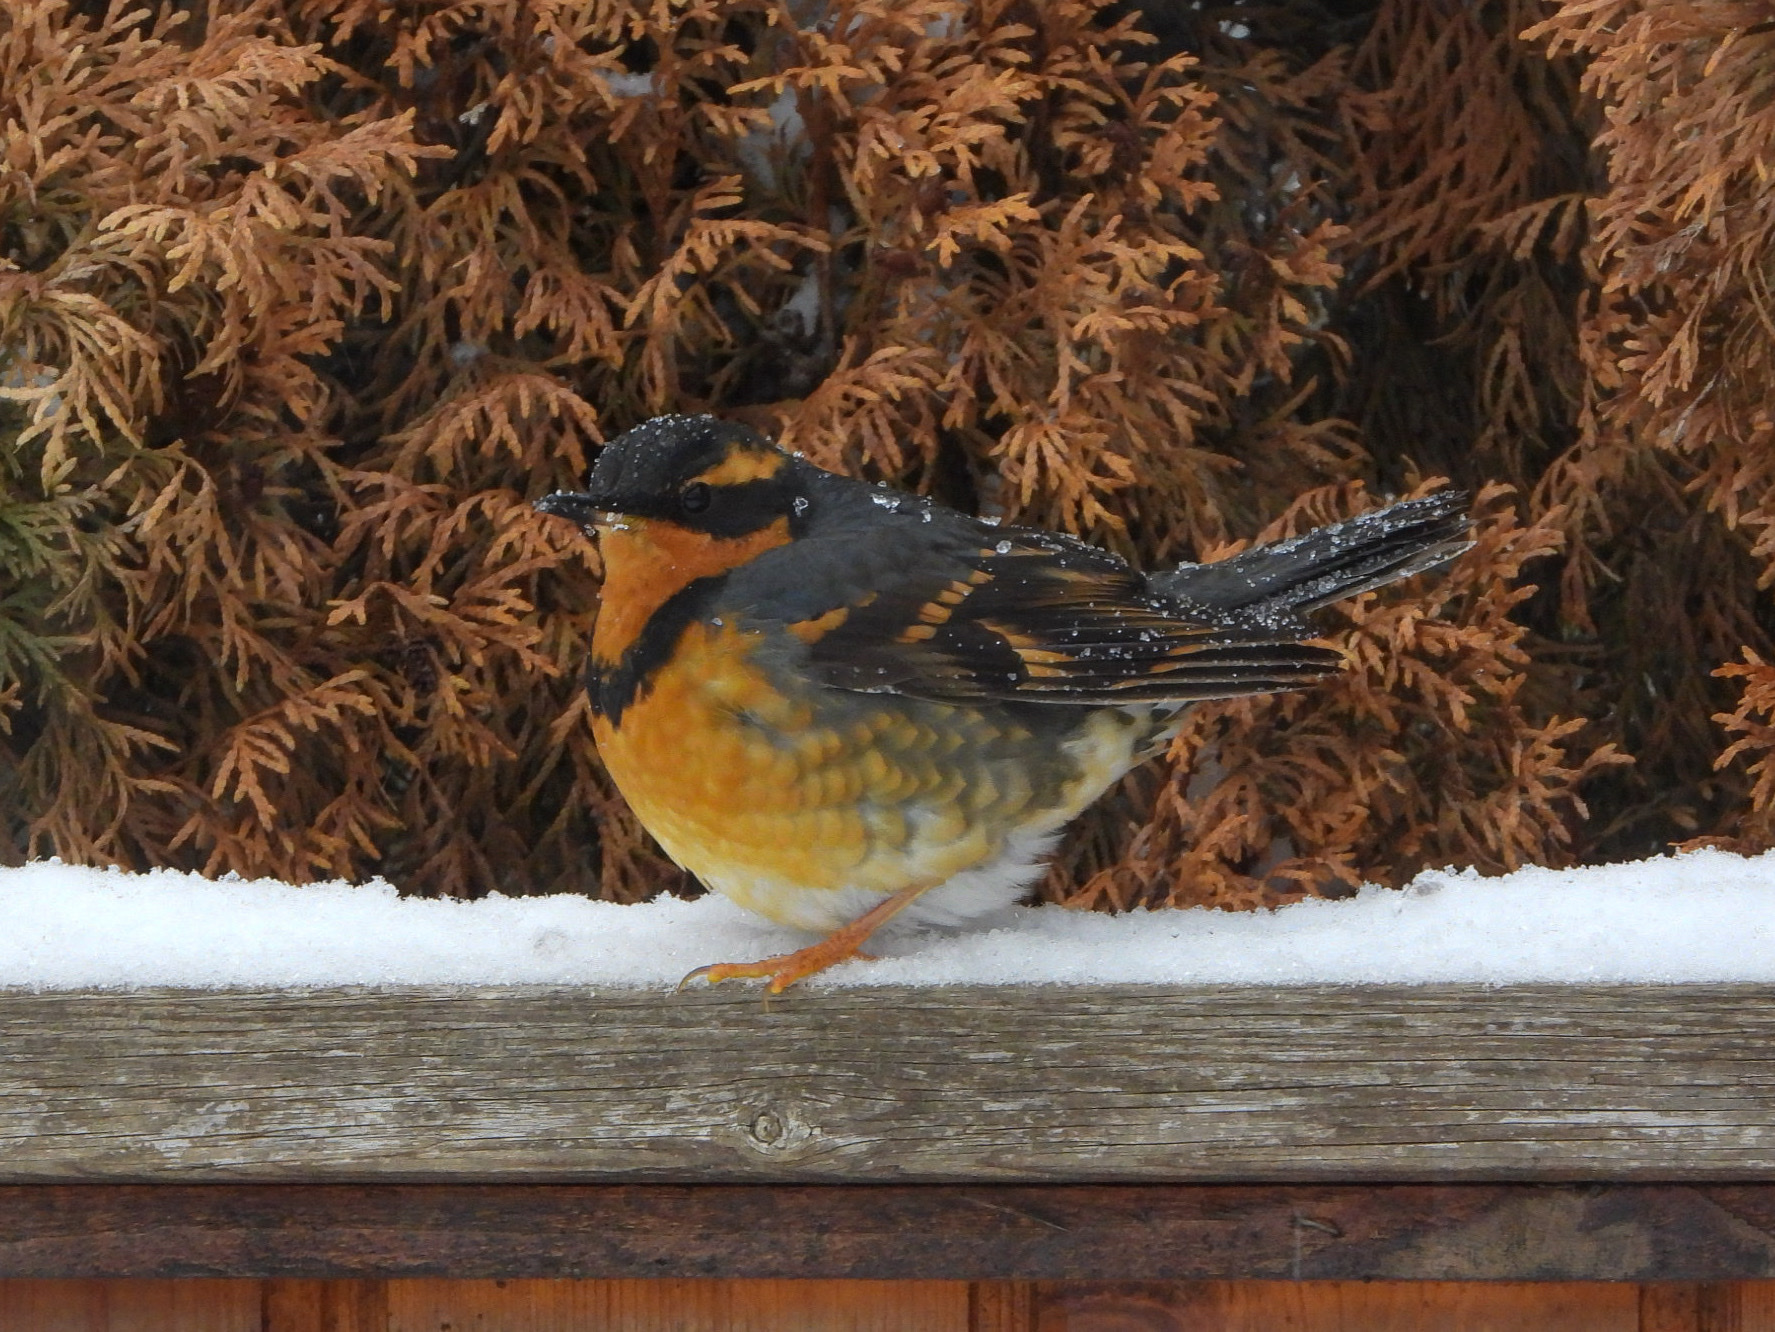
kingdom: Animalia
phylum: Chordata
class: Aves
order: Passeriformes
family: Turdidae
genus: Ixoreus
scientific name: Ixoreus naevius
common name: Varied thrush
